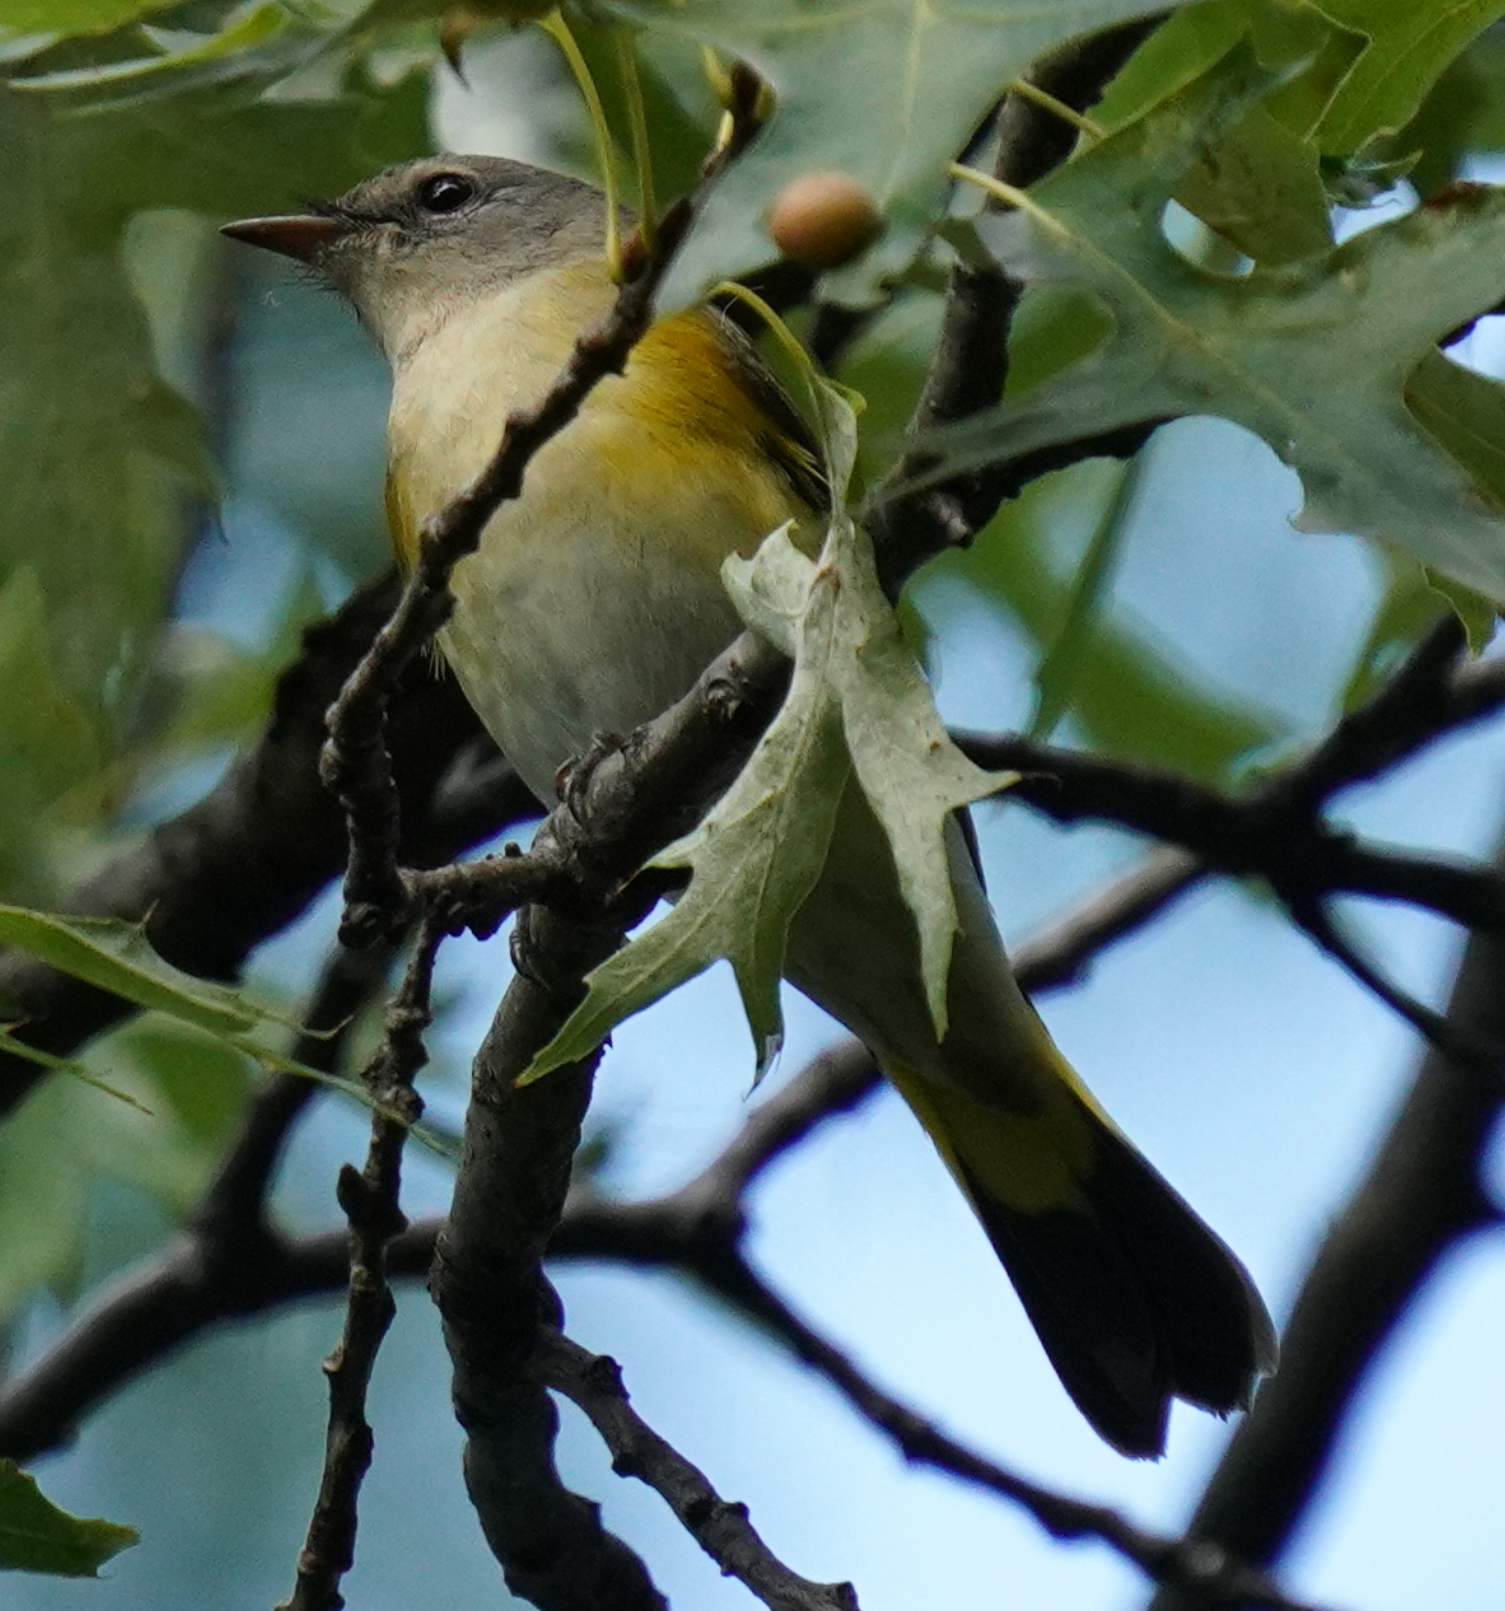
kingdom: Animalia
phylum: Chordata
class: Aves
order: Passeriformes
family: Parulidae
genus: Setophaga
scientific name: Setophaga ruticilla
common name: American redstart
